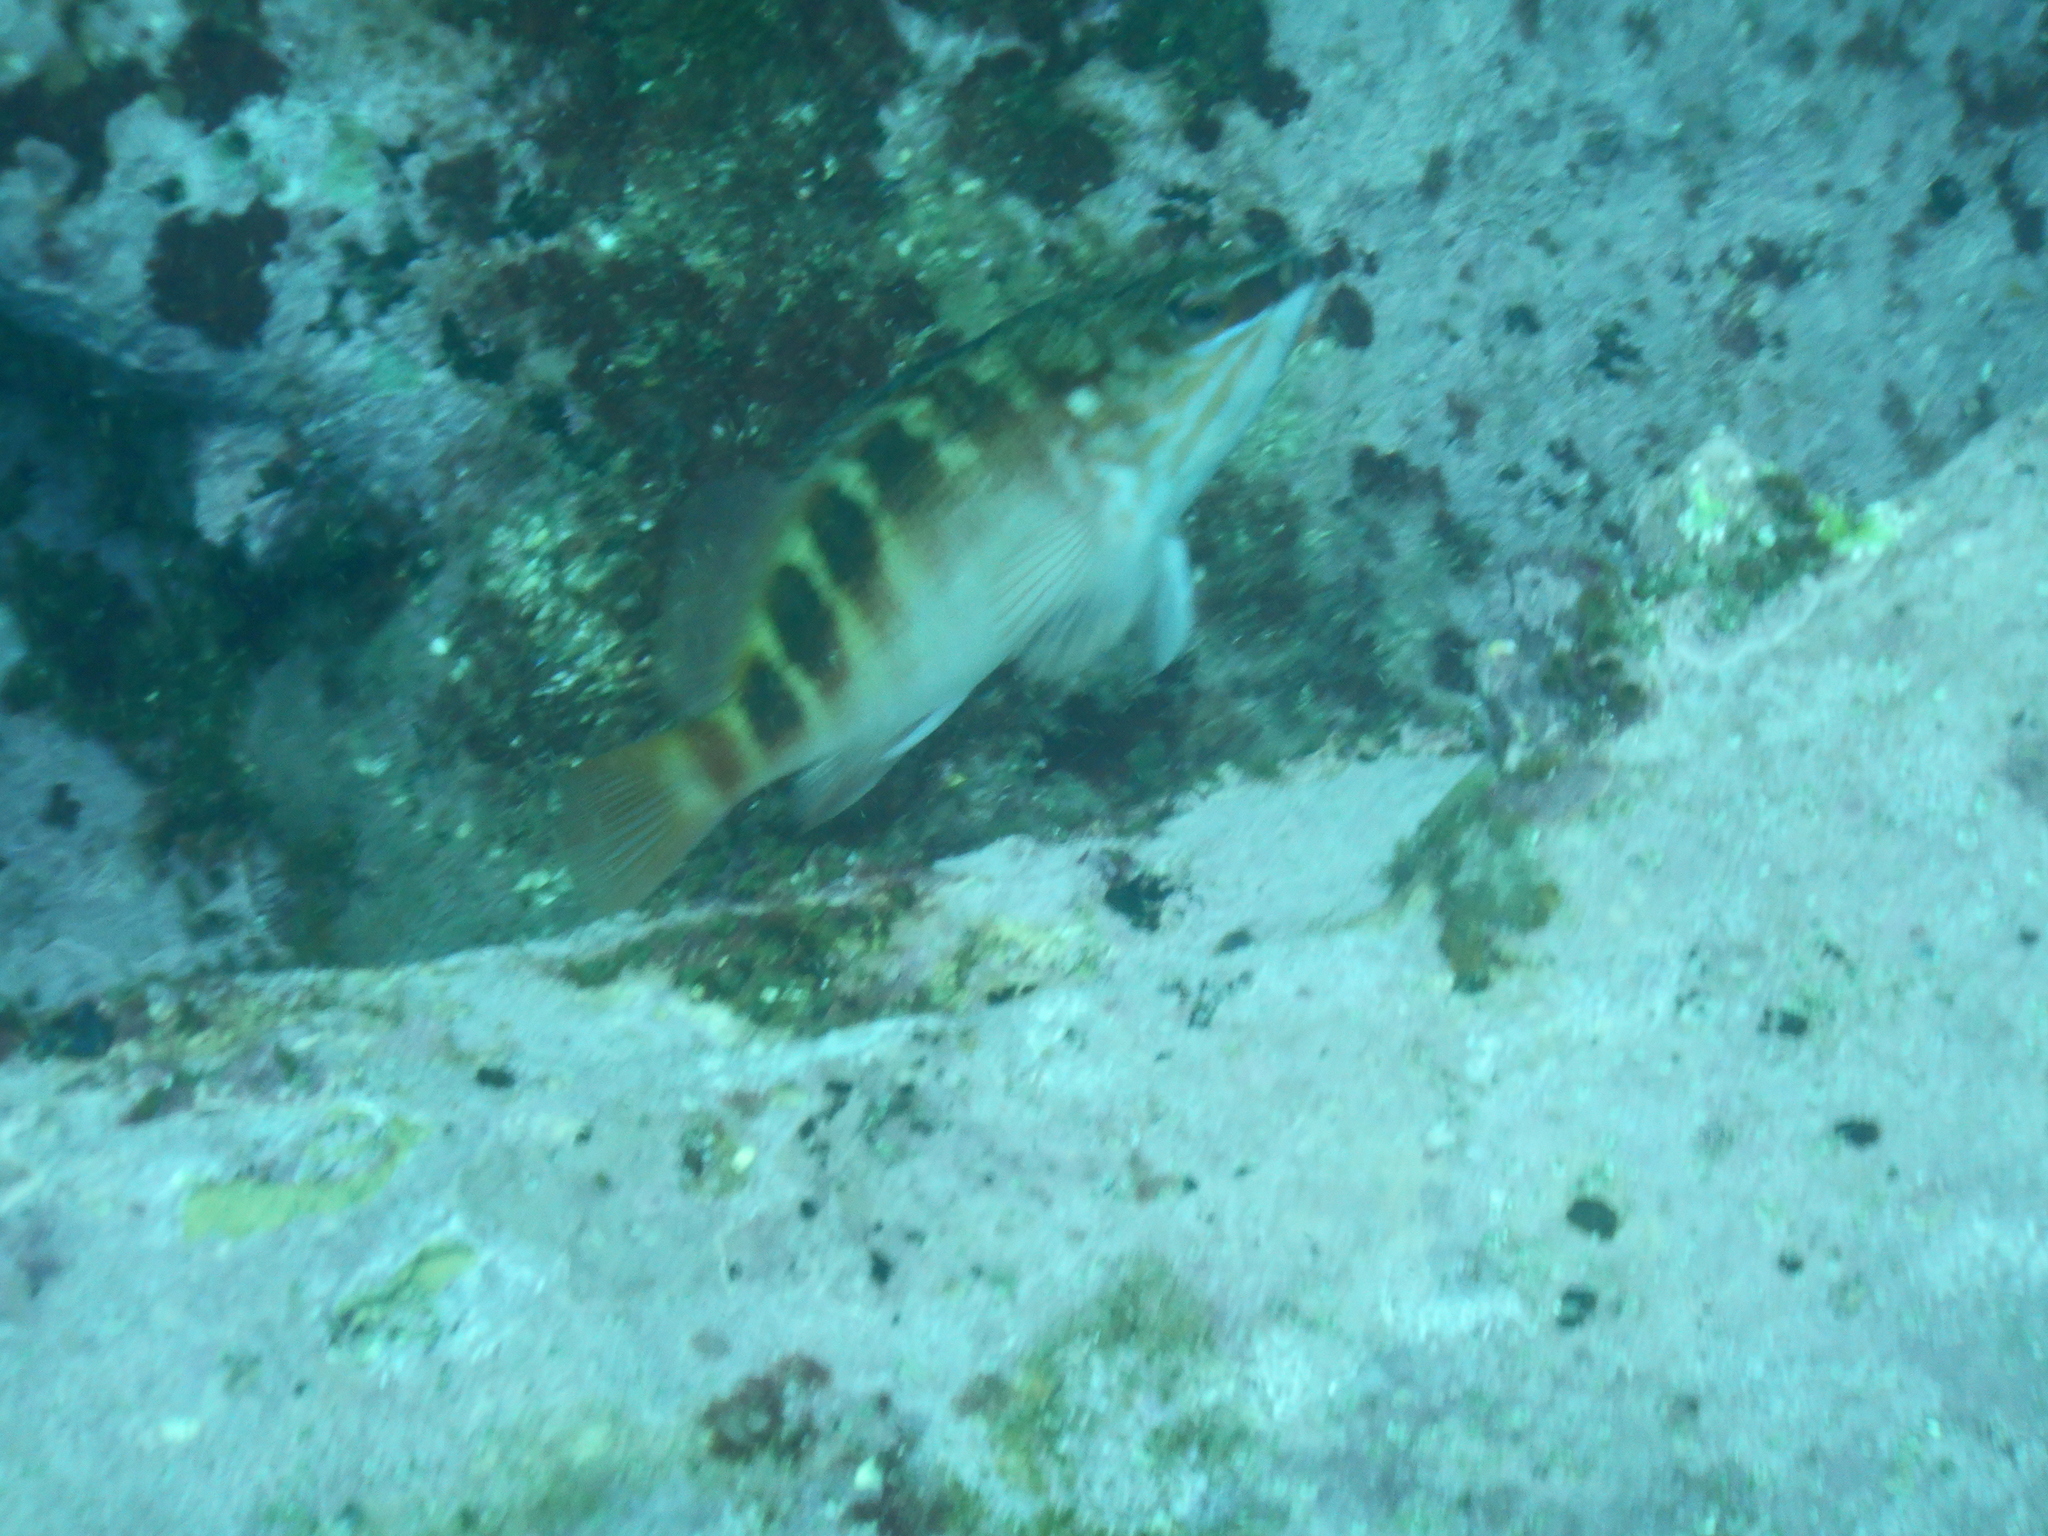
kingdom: Animalia
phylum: Chordata
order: Perciformes
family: Serranidae
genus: Hypoplectrodes
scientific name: Hypoplectrodes maccullochi
